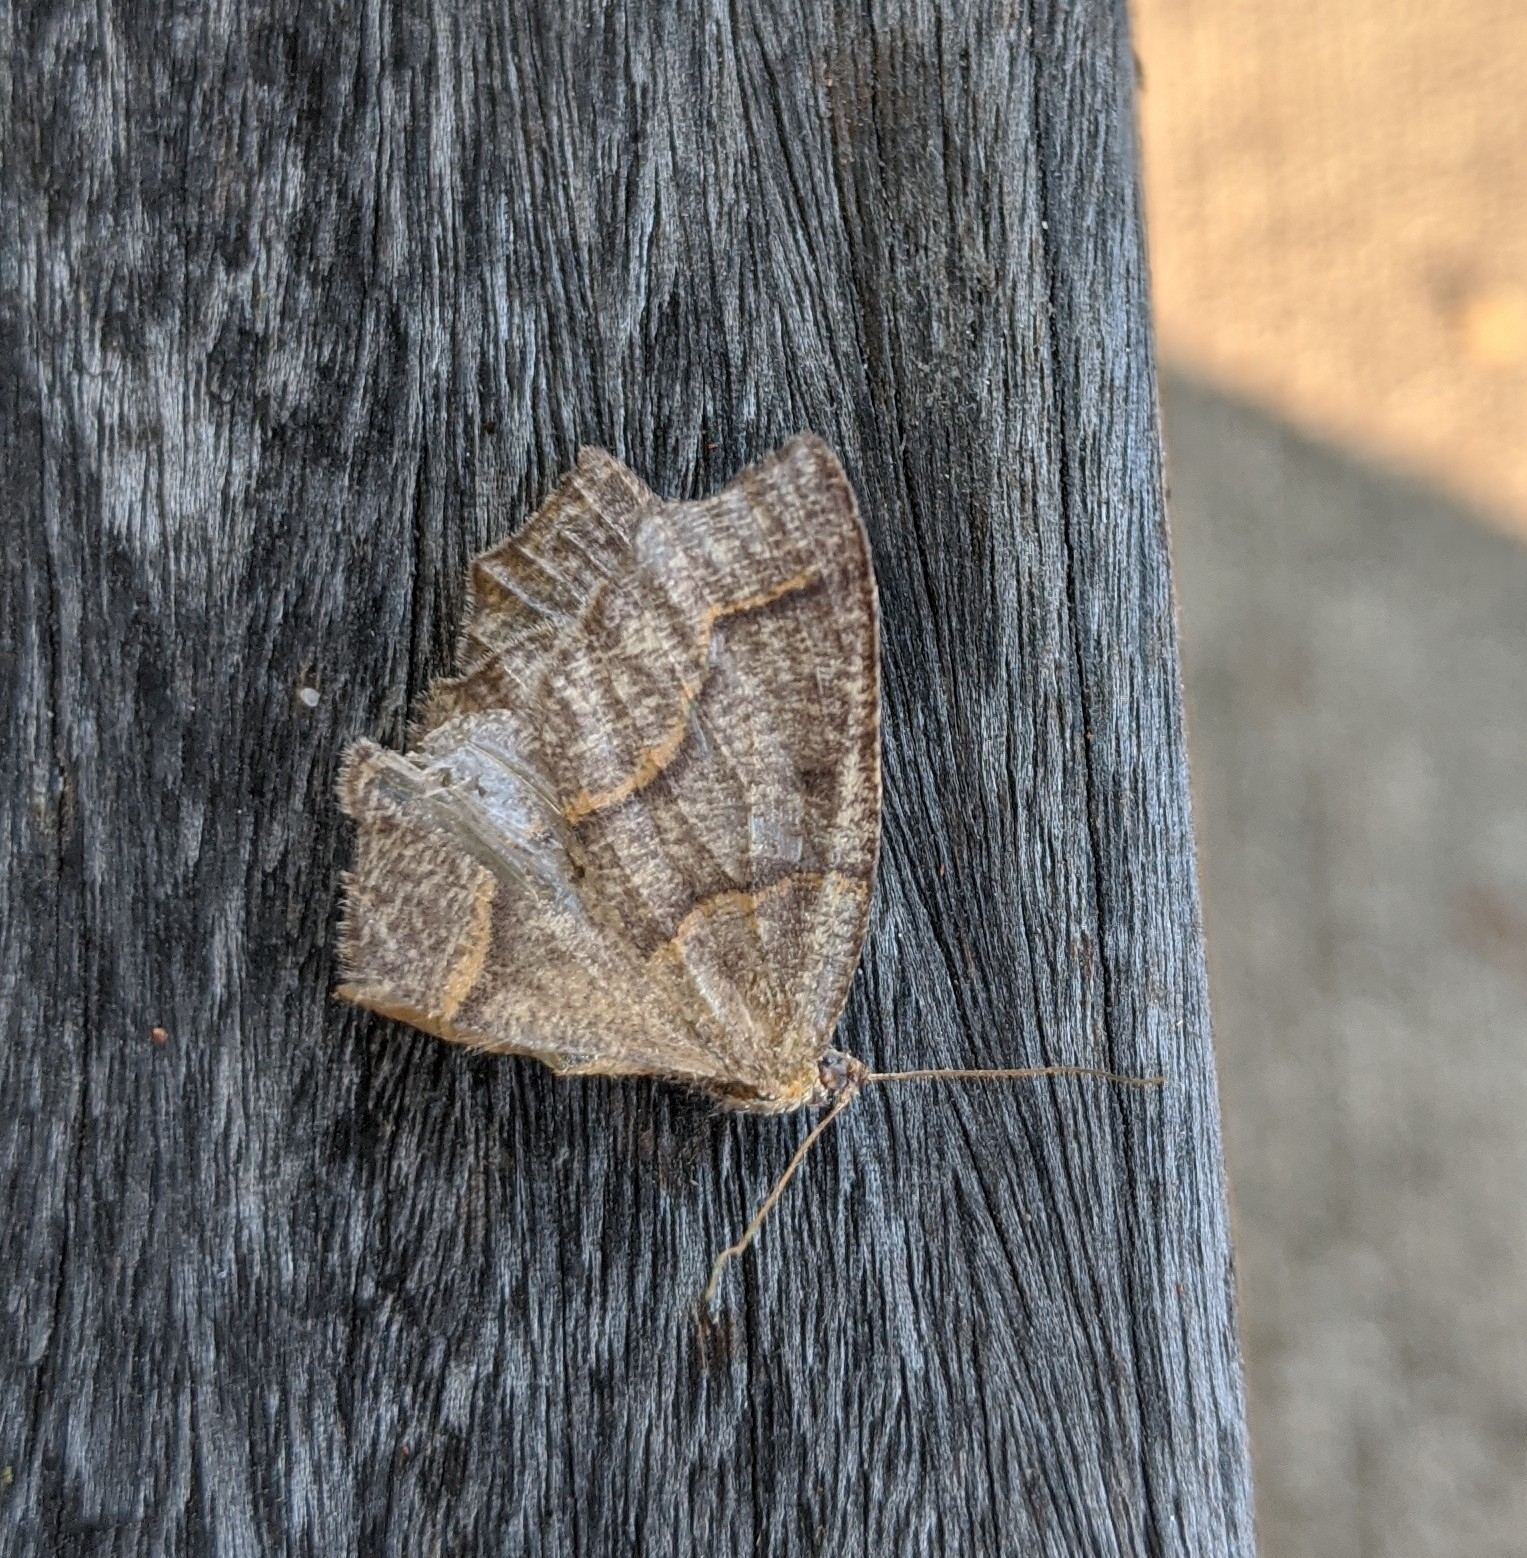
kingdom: Animalia
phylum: Arthropoda
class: Insecta
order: Lepidoptera
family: Geometridae
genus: Lambdina
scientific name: Lambdina fiscellaria
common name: Hemlock looper
